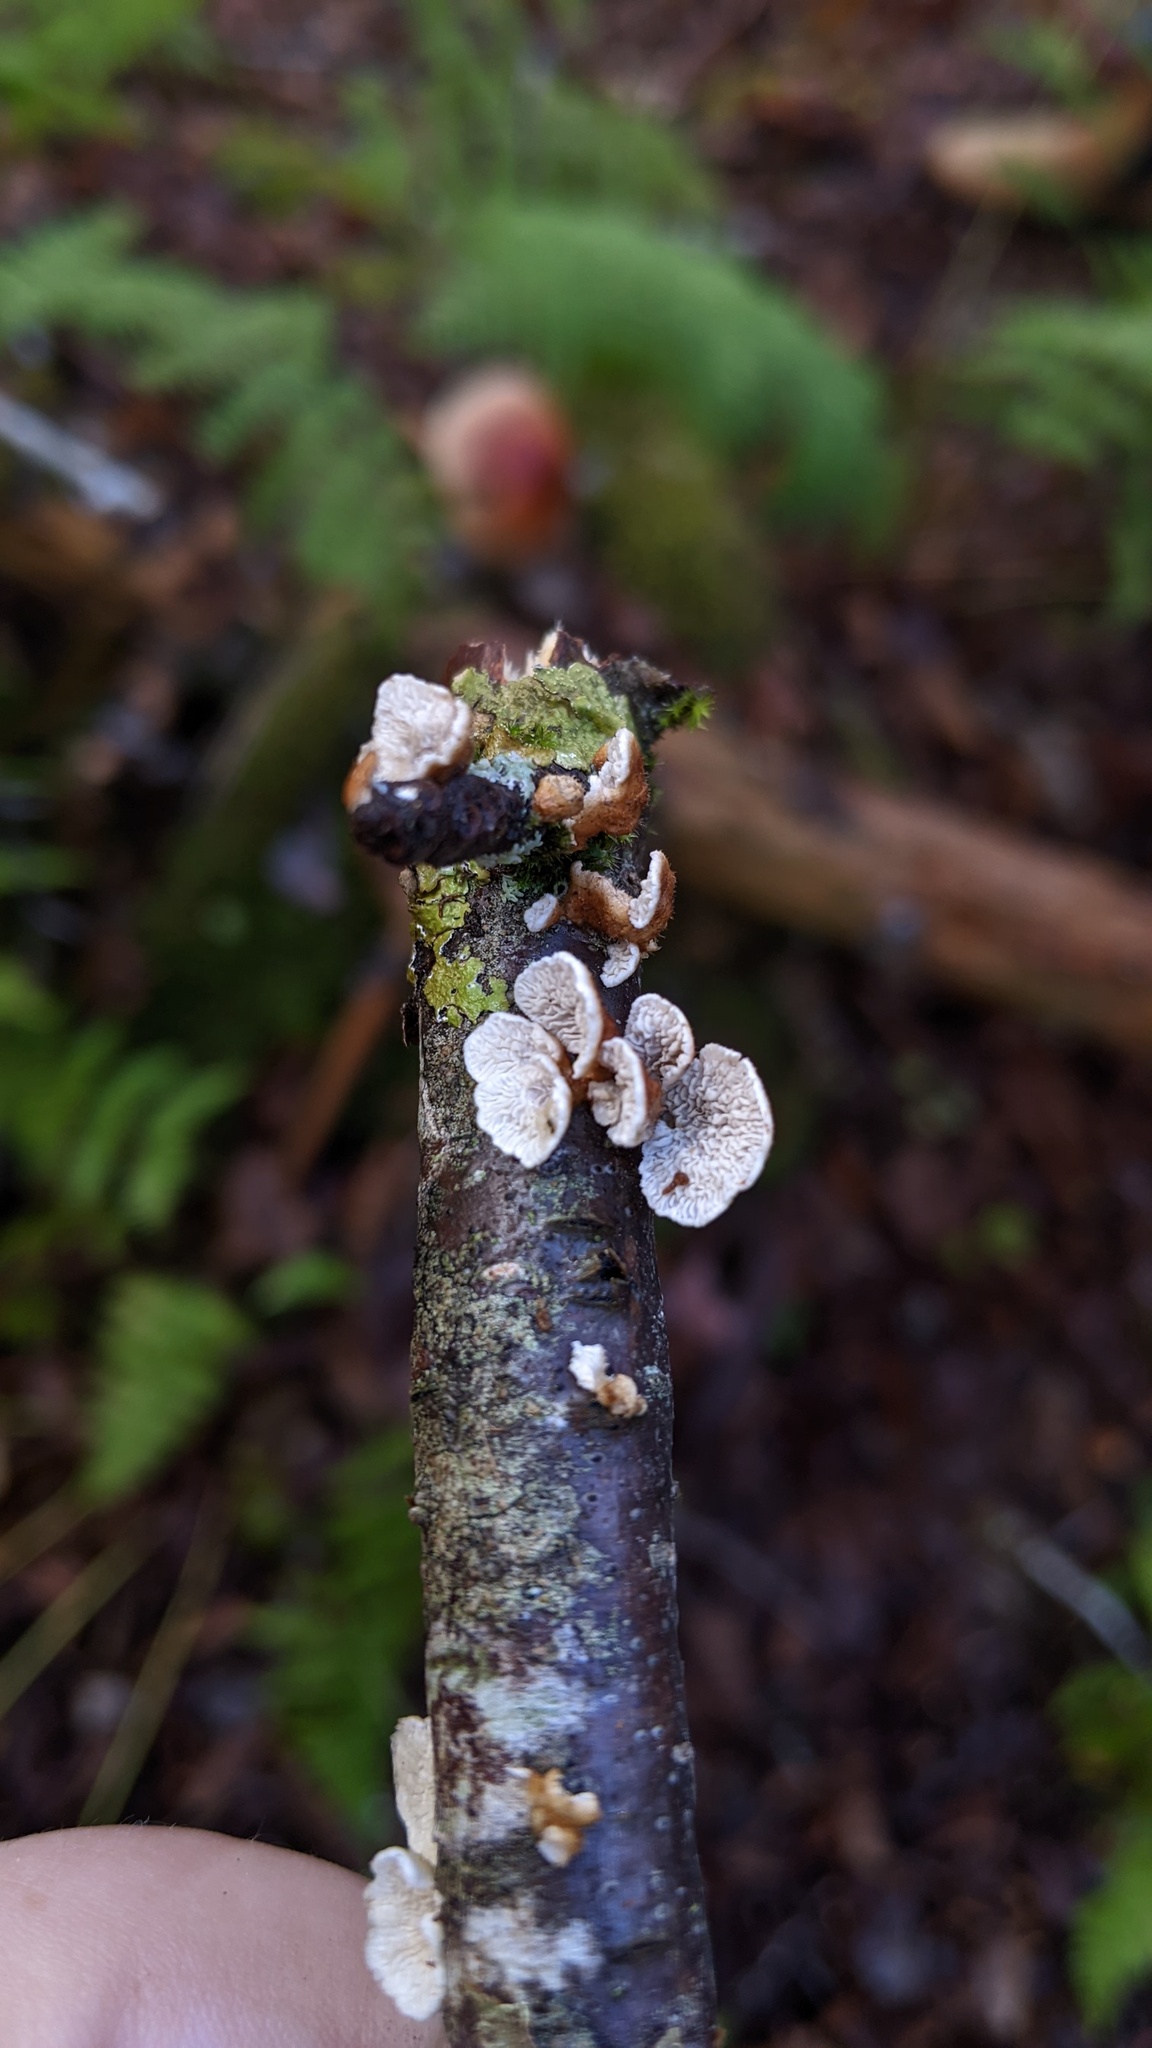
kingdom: Fungi
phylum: Basidiomycota
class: Agaricomycetes
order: Amylocorticiales
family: Amylocorticiaceae
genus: Plicaturopsis
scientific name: Plicaturopsis crispa
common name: Crimped gill
